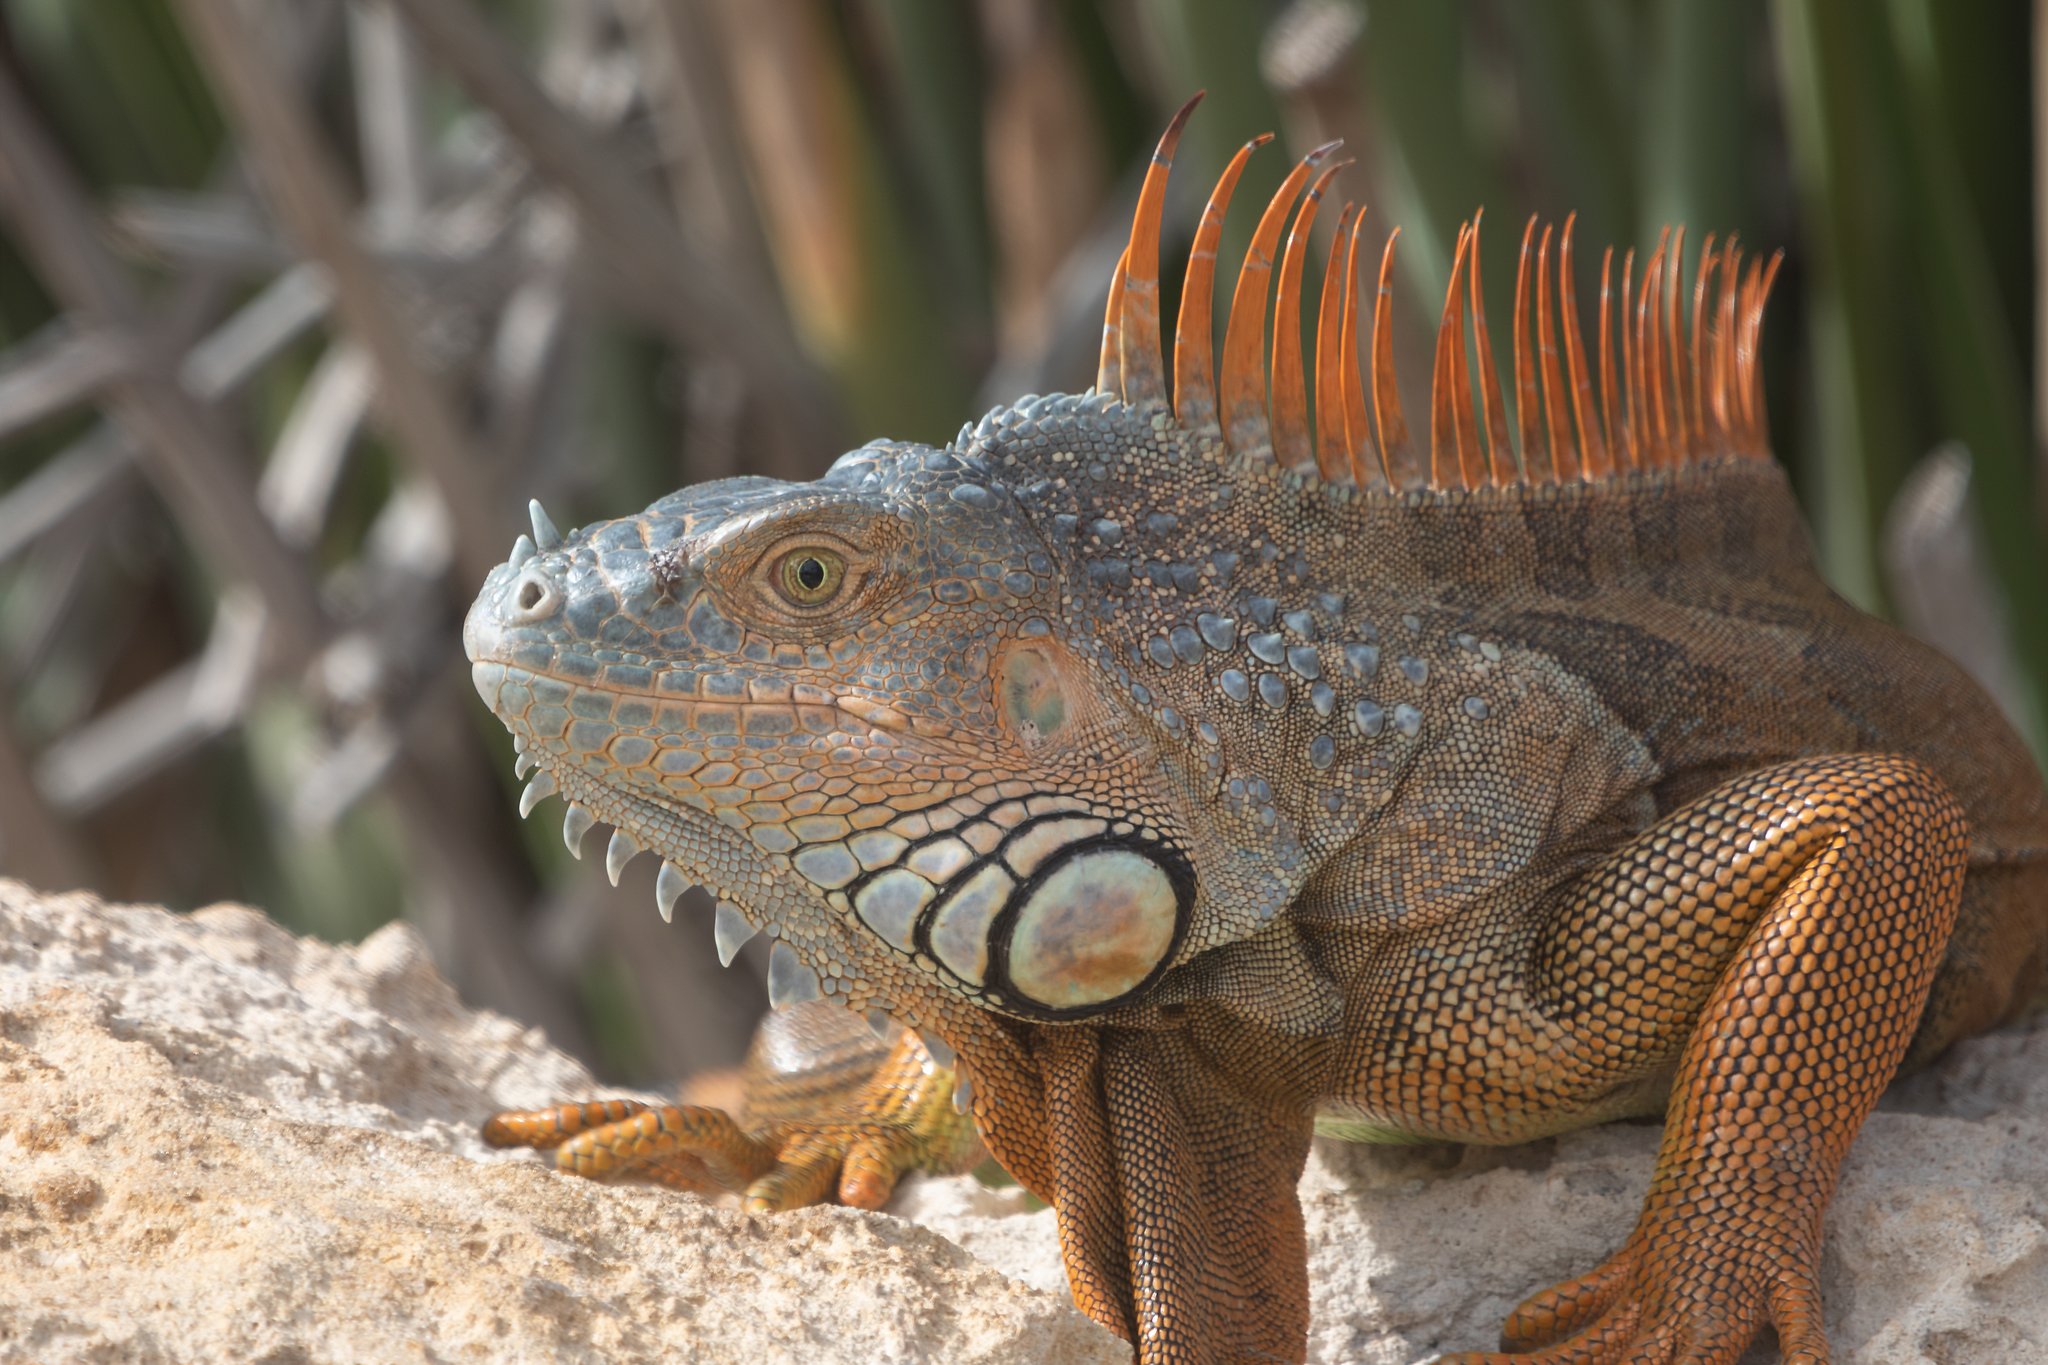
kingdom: Animalia
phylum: Chordata
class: Squamata
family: Iguanidae
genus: Iguana
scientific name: Iguana iguana
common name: Green iguana
